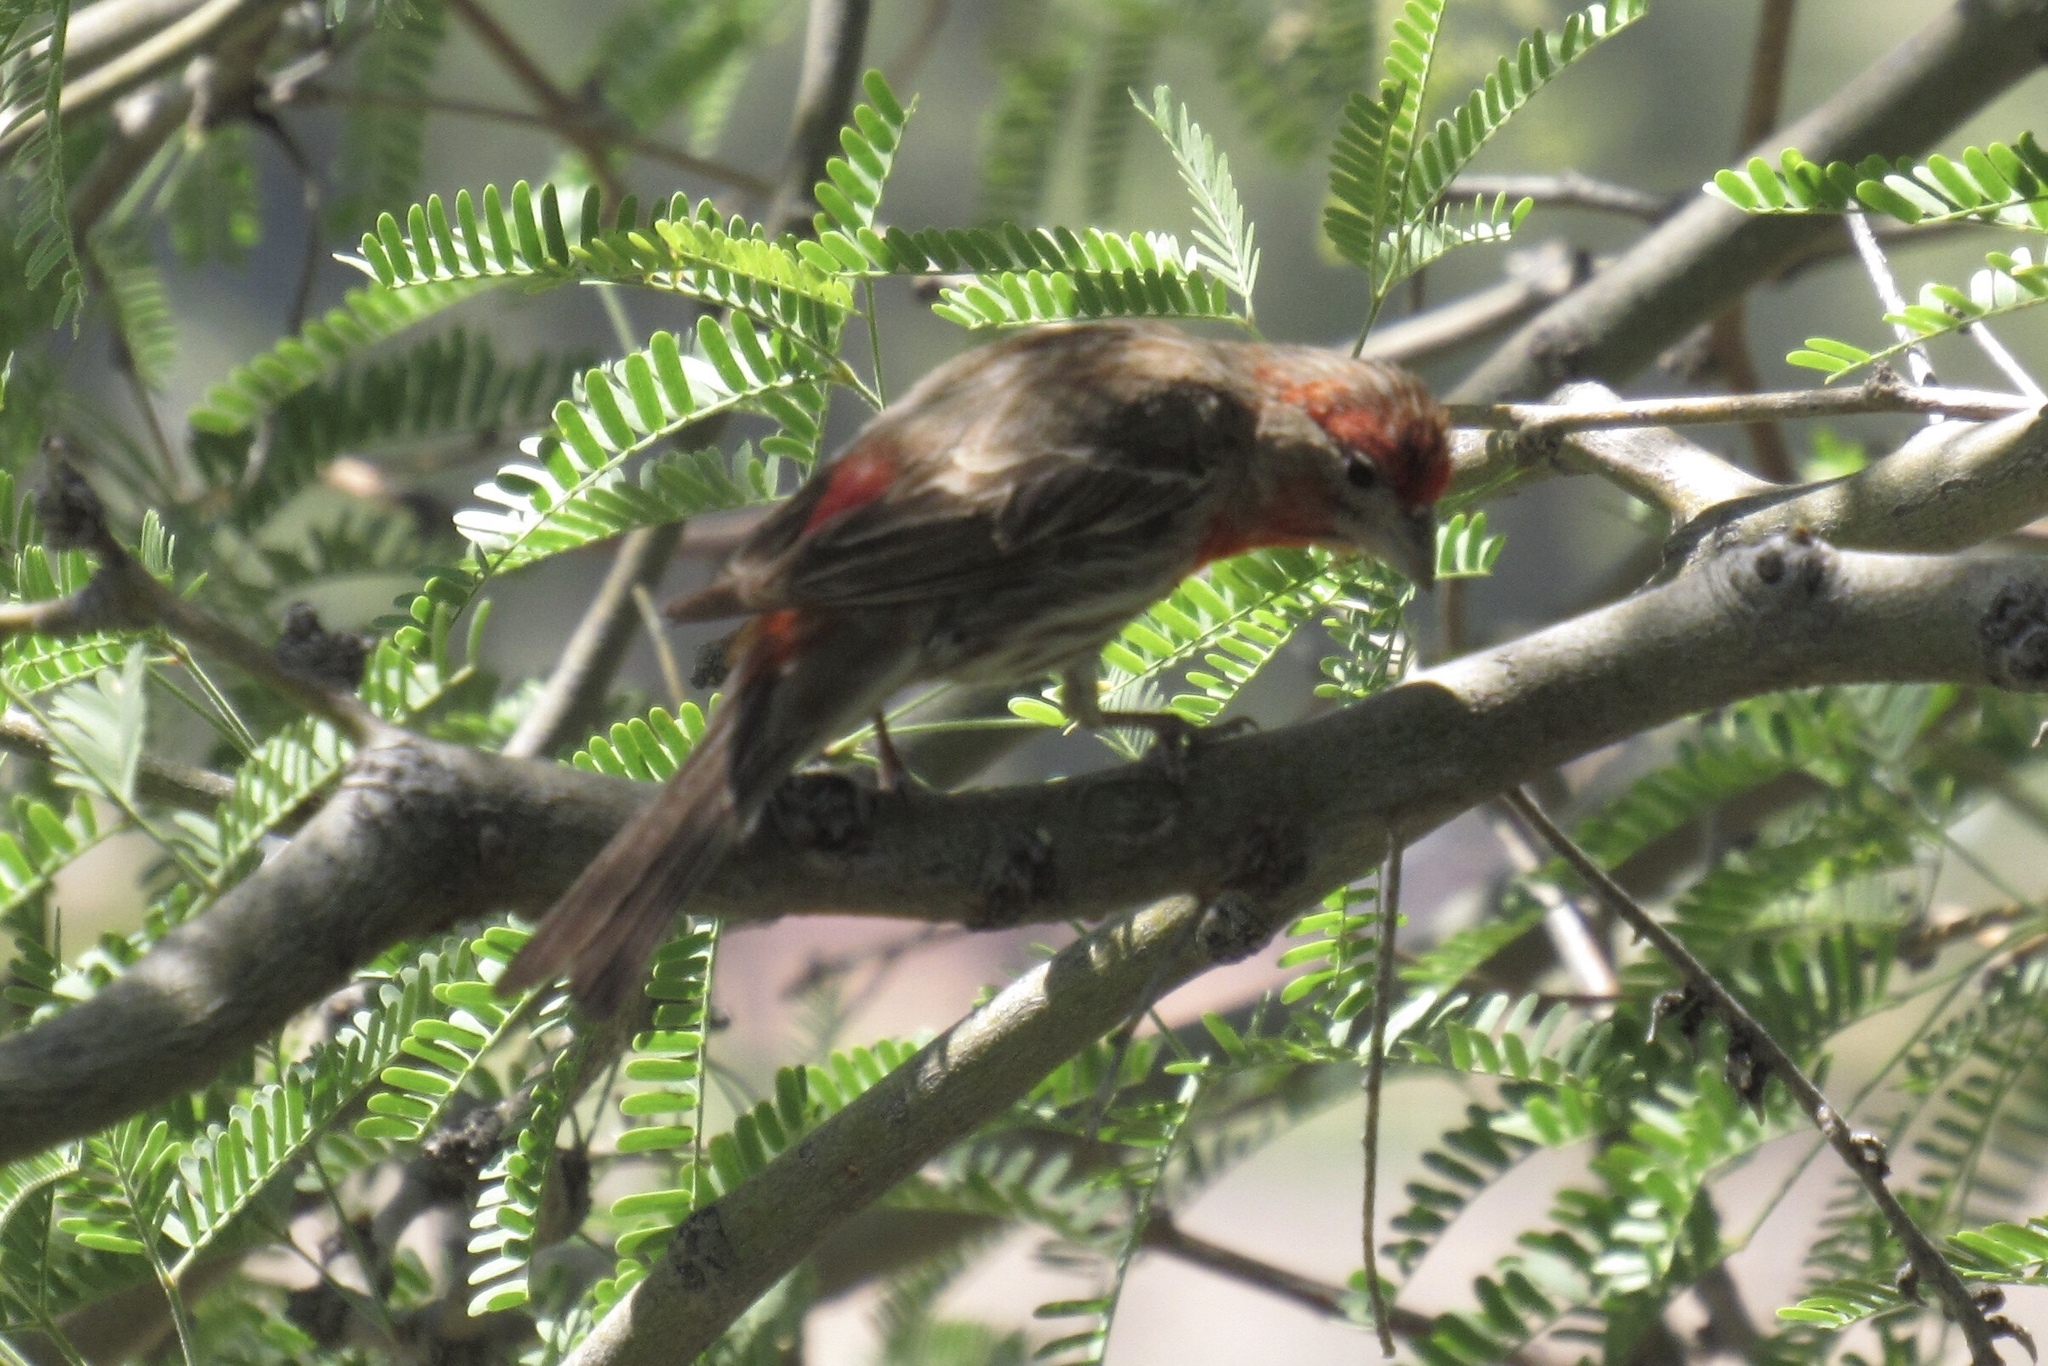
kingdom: Animalia
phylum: Chordata
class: Aves
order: Passeriformes
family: Fringillidae
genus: Haemorhous
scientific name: Haemorhous mexicanus
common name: House finch
